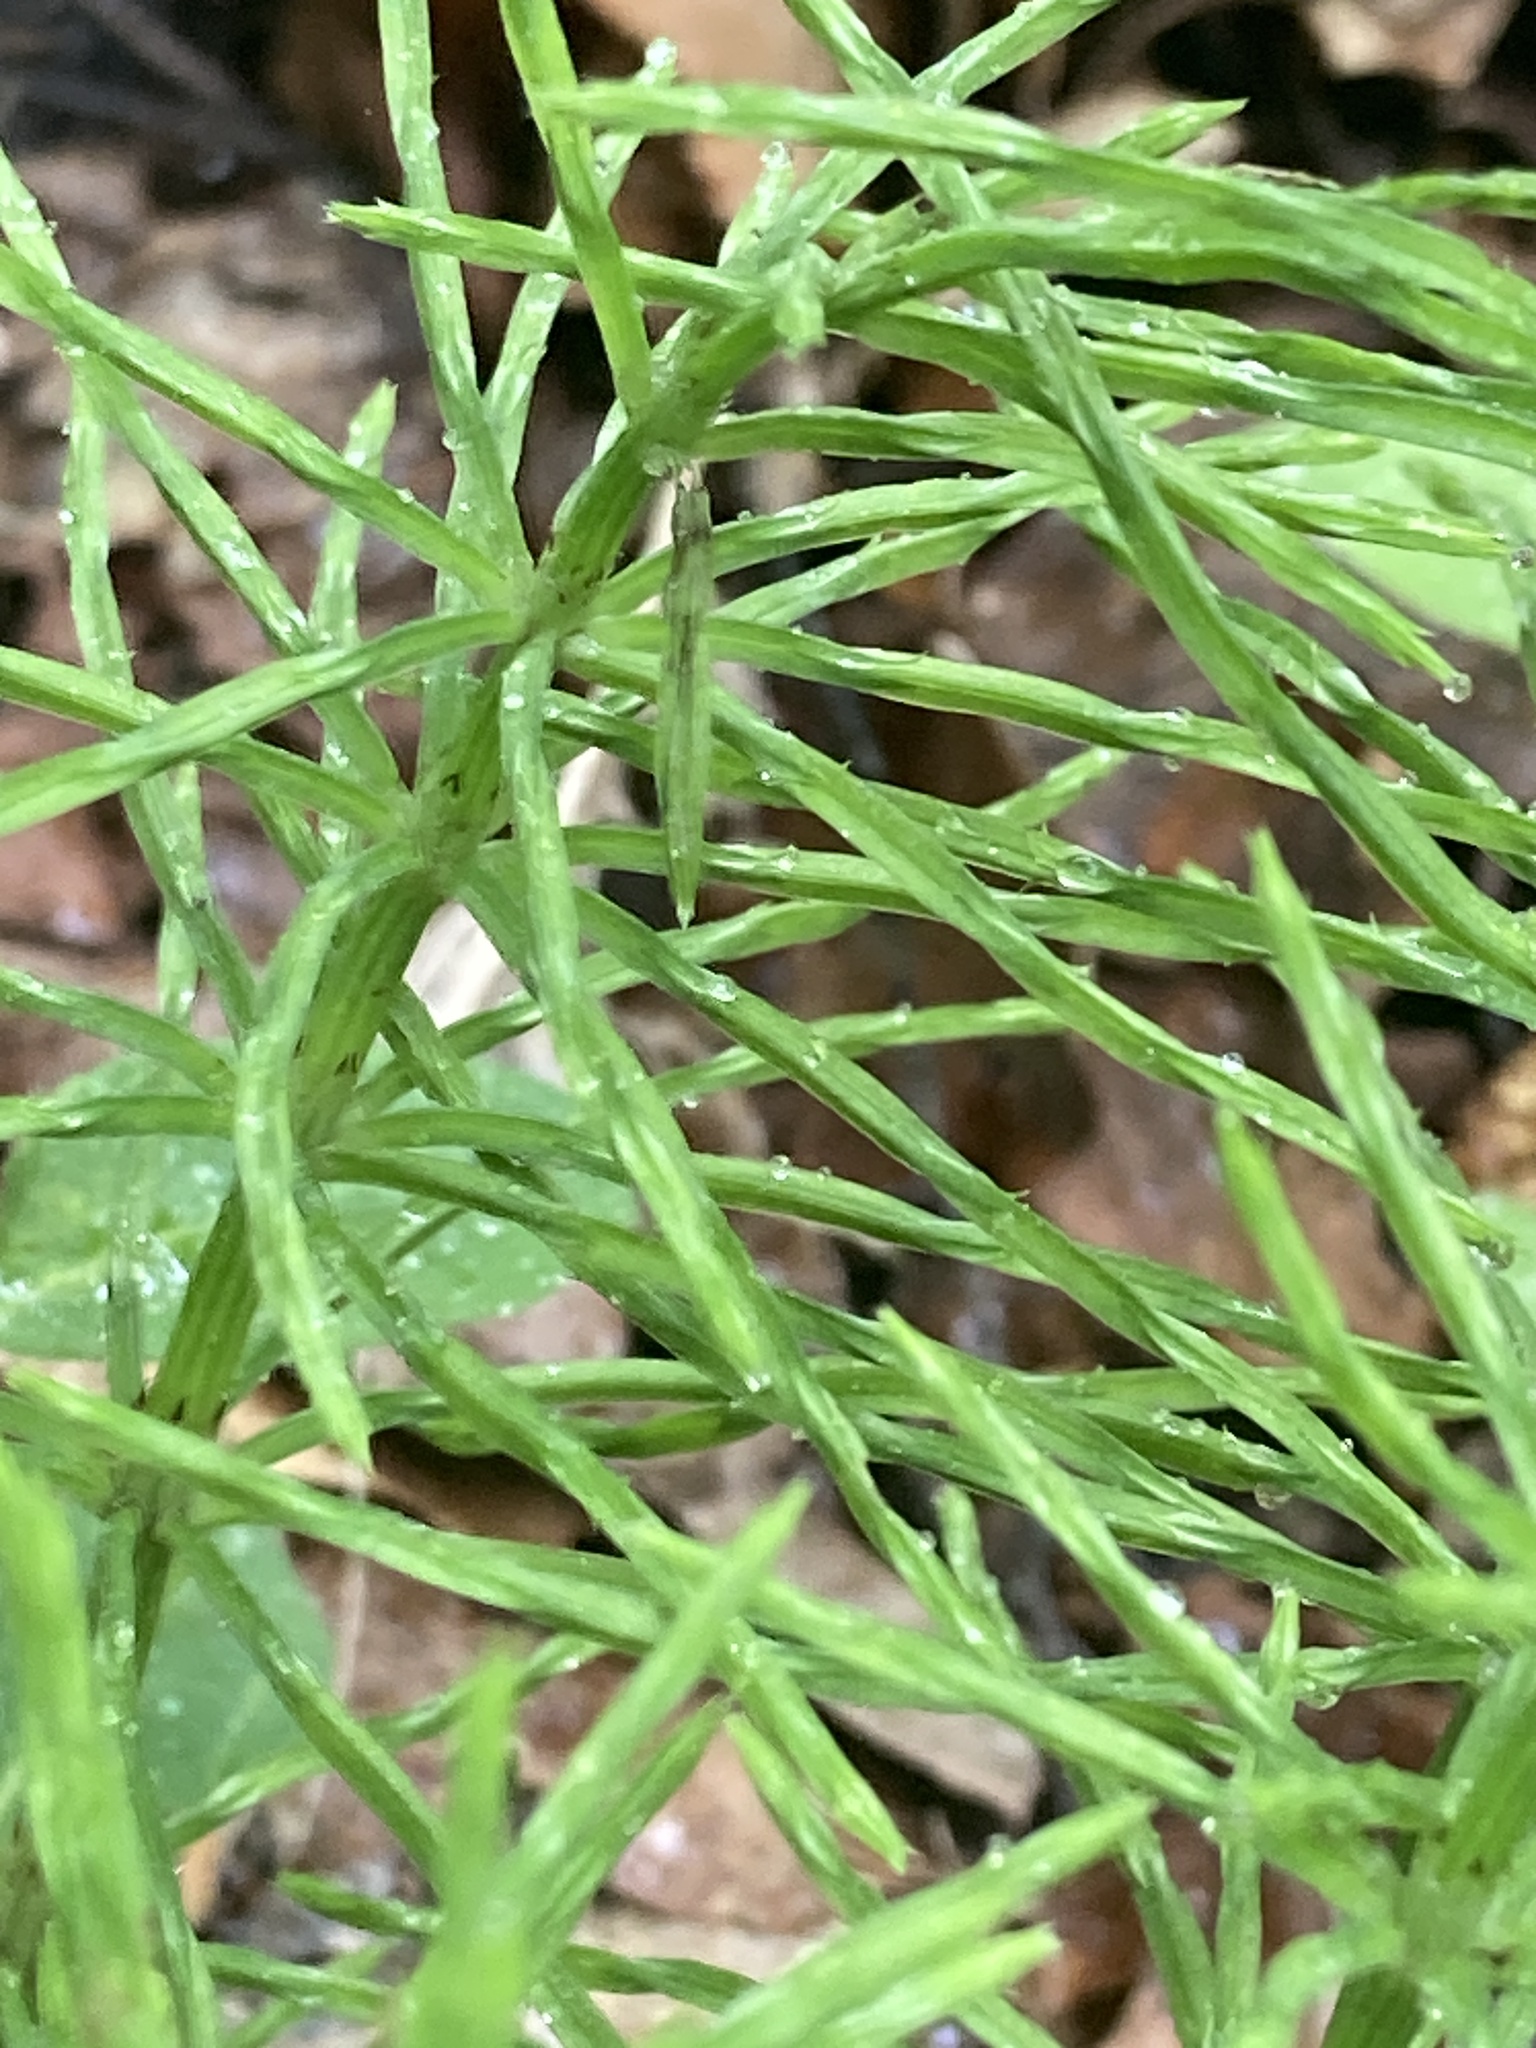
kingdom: Plantae
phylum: Tracheophyta
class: Polypodiopsida
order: Equisetales
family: Equisetaceae
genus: Equisetum
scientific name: Equisetum arvense
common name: Field horsetail
